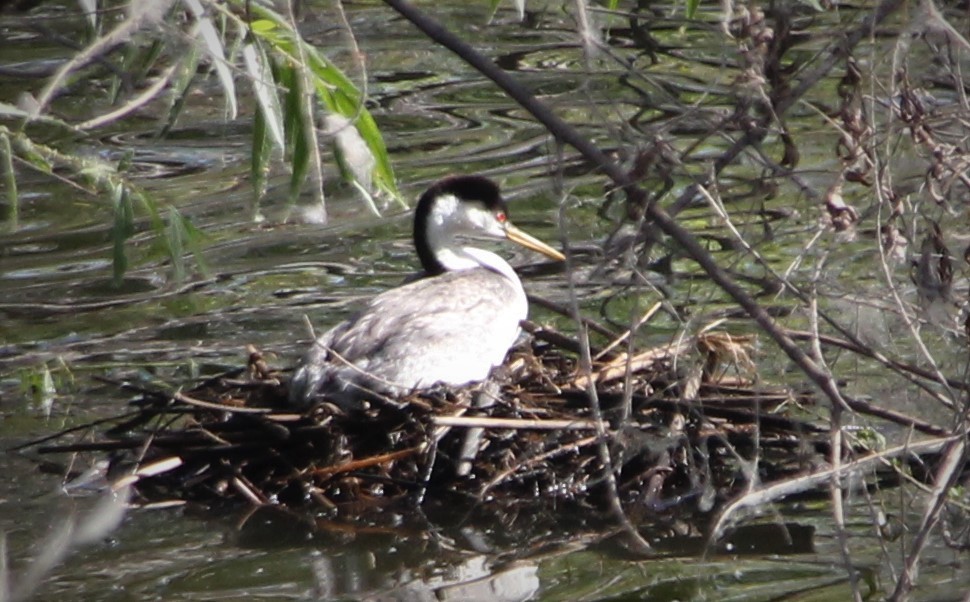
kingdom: Animalia
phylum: Chordata
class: Aves
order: Podicipediformes
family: Podicipedidae
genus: Aechmophorus
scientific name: Aechmophorus occidentalis
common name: Western grebe
